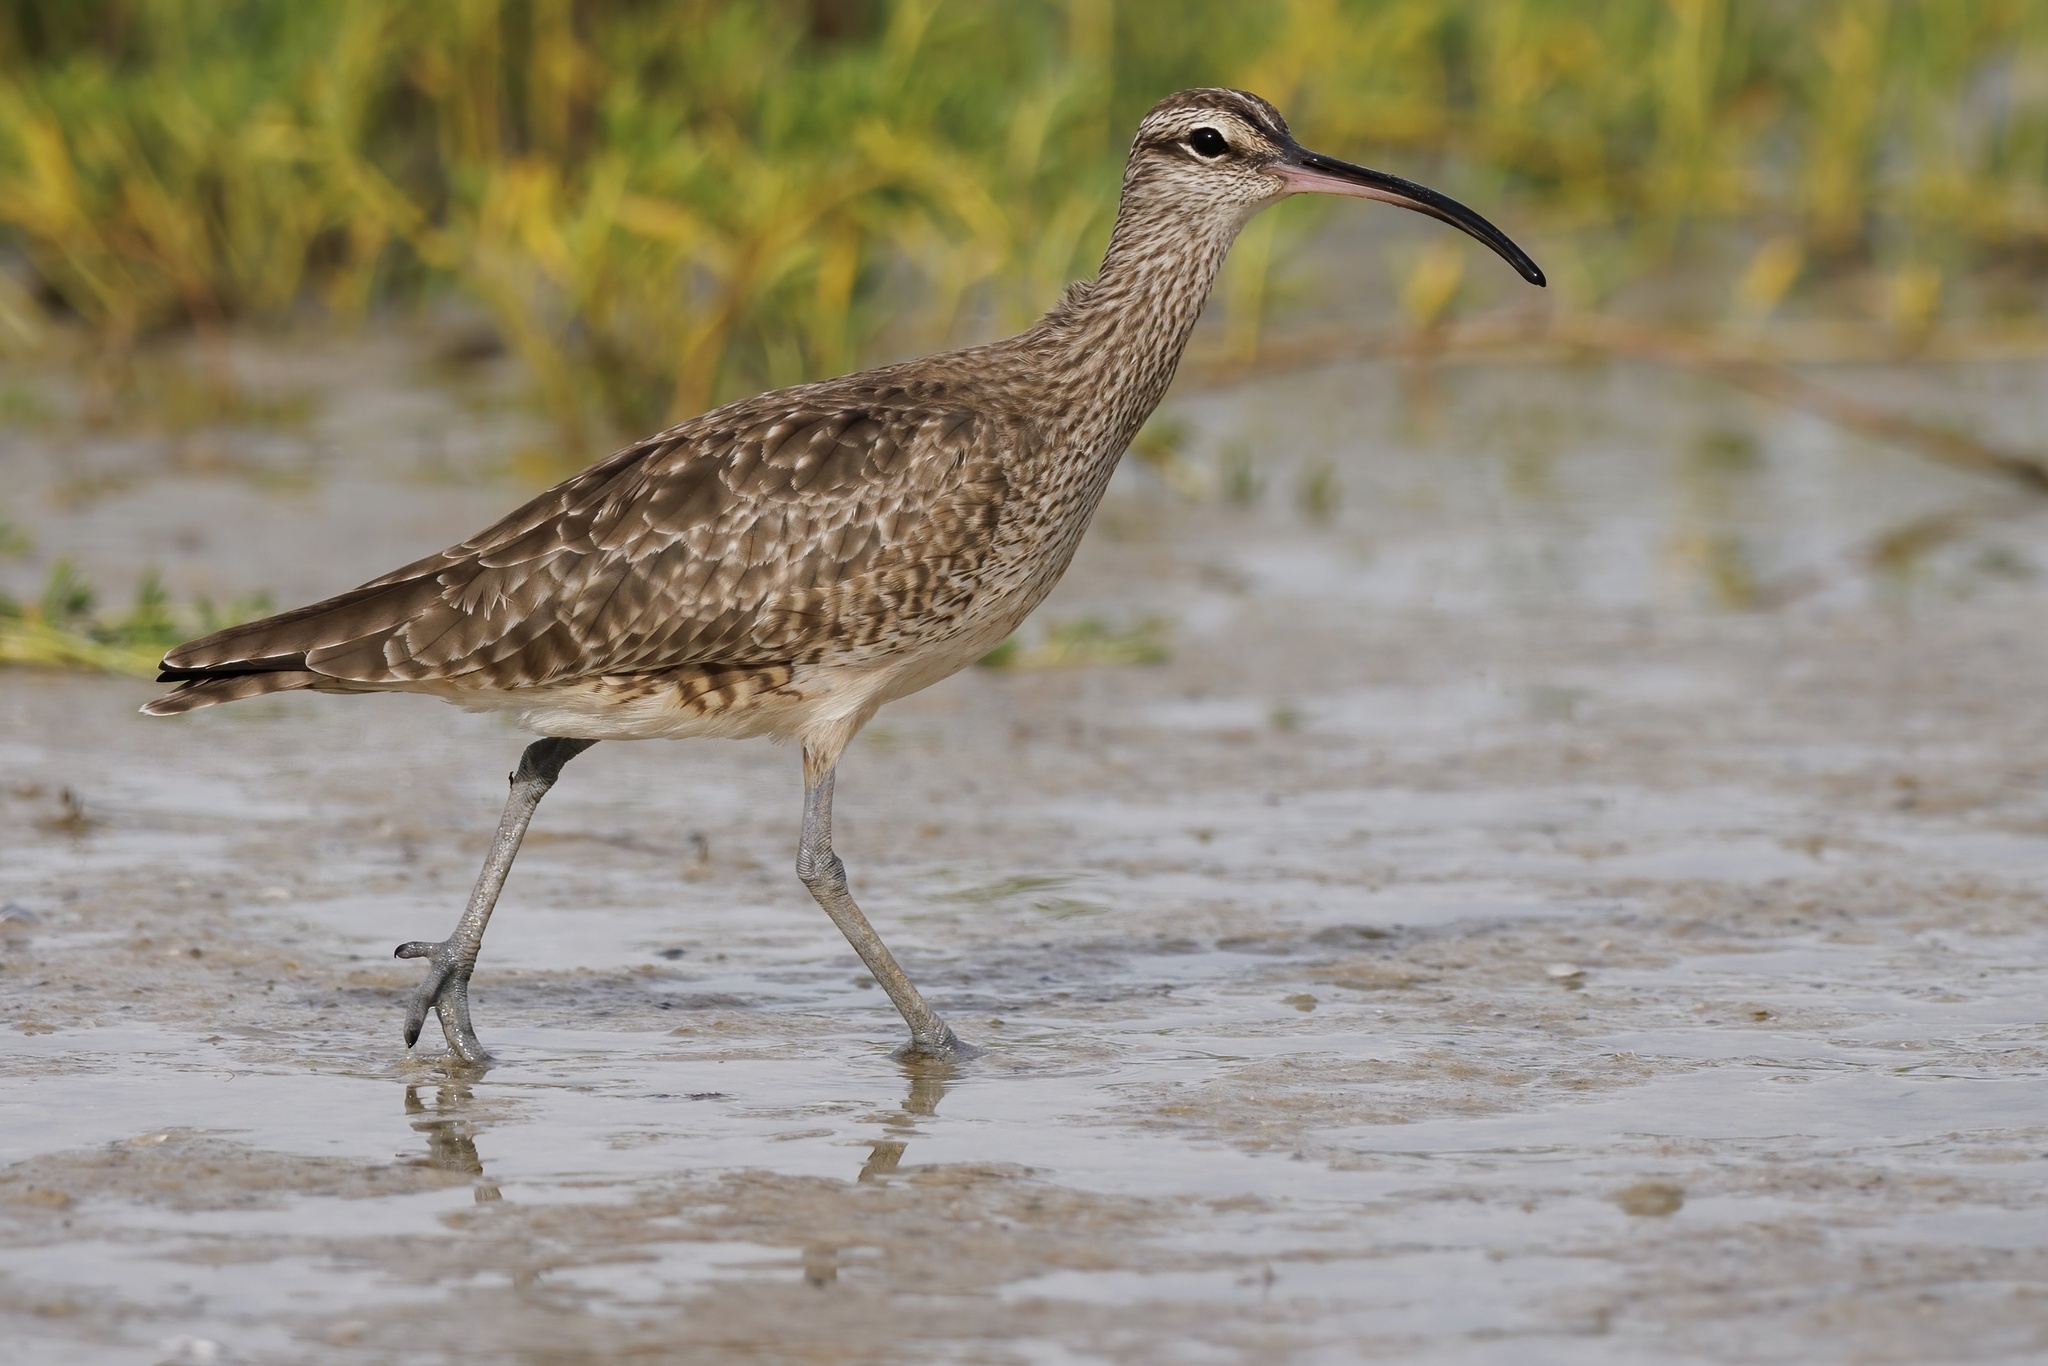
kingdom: Animalia
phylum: Chordata
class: Aves
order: Charadriiformes
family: Scolopacidae
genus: Numenius
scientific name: Numenius phaeopus
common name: Whimbrel
